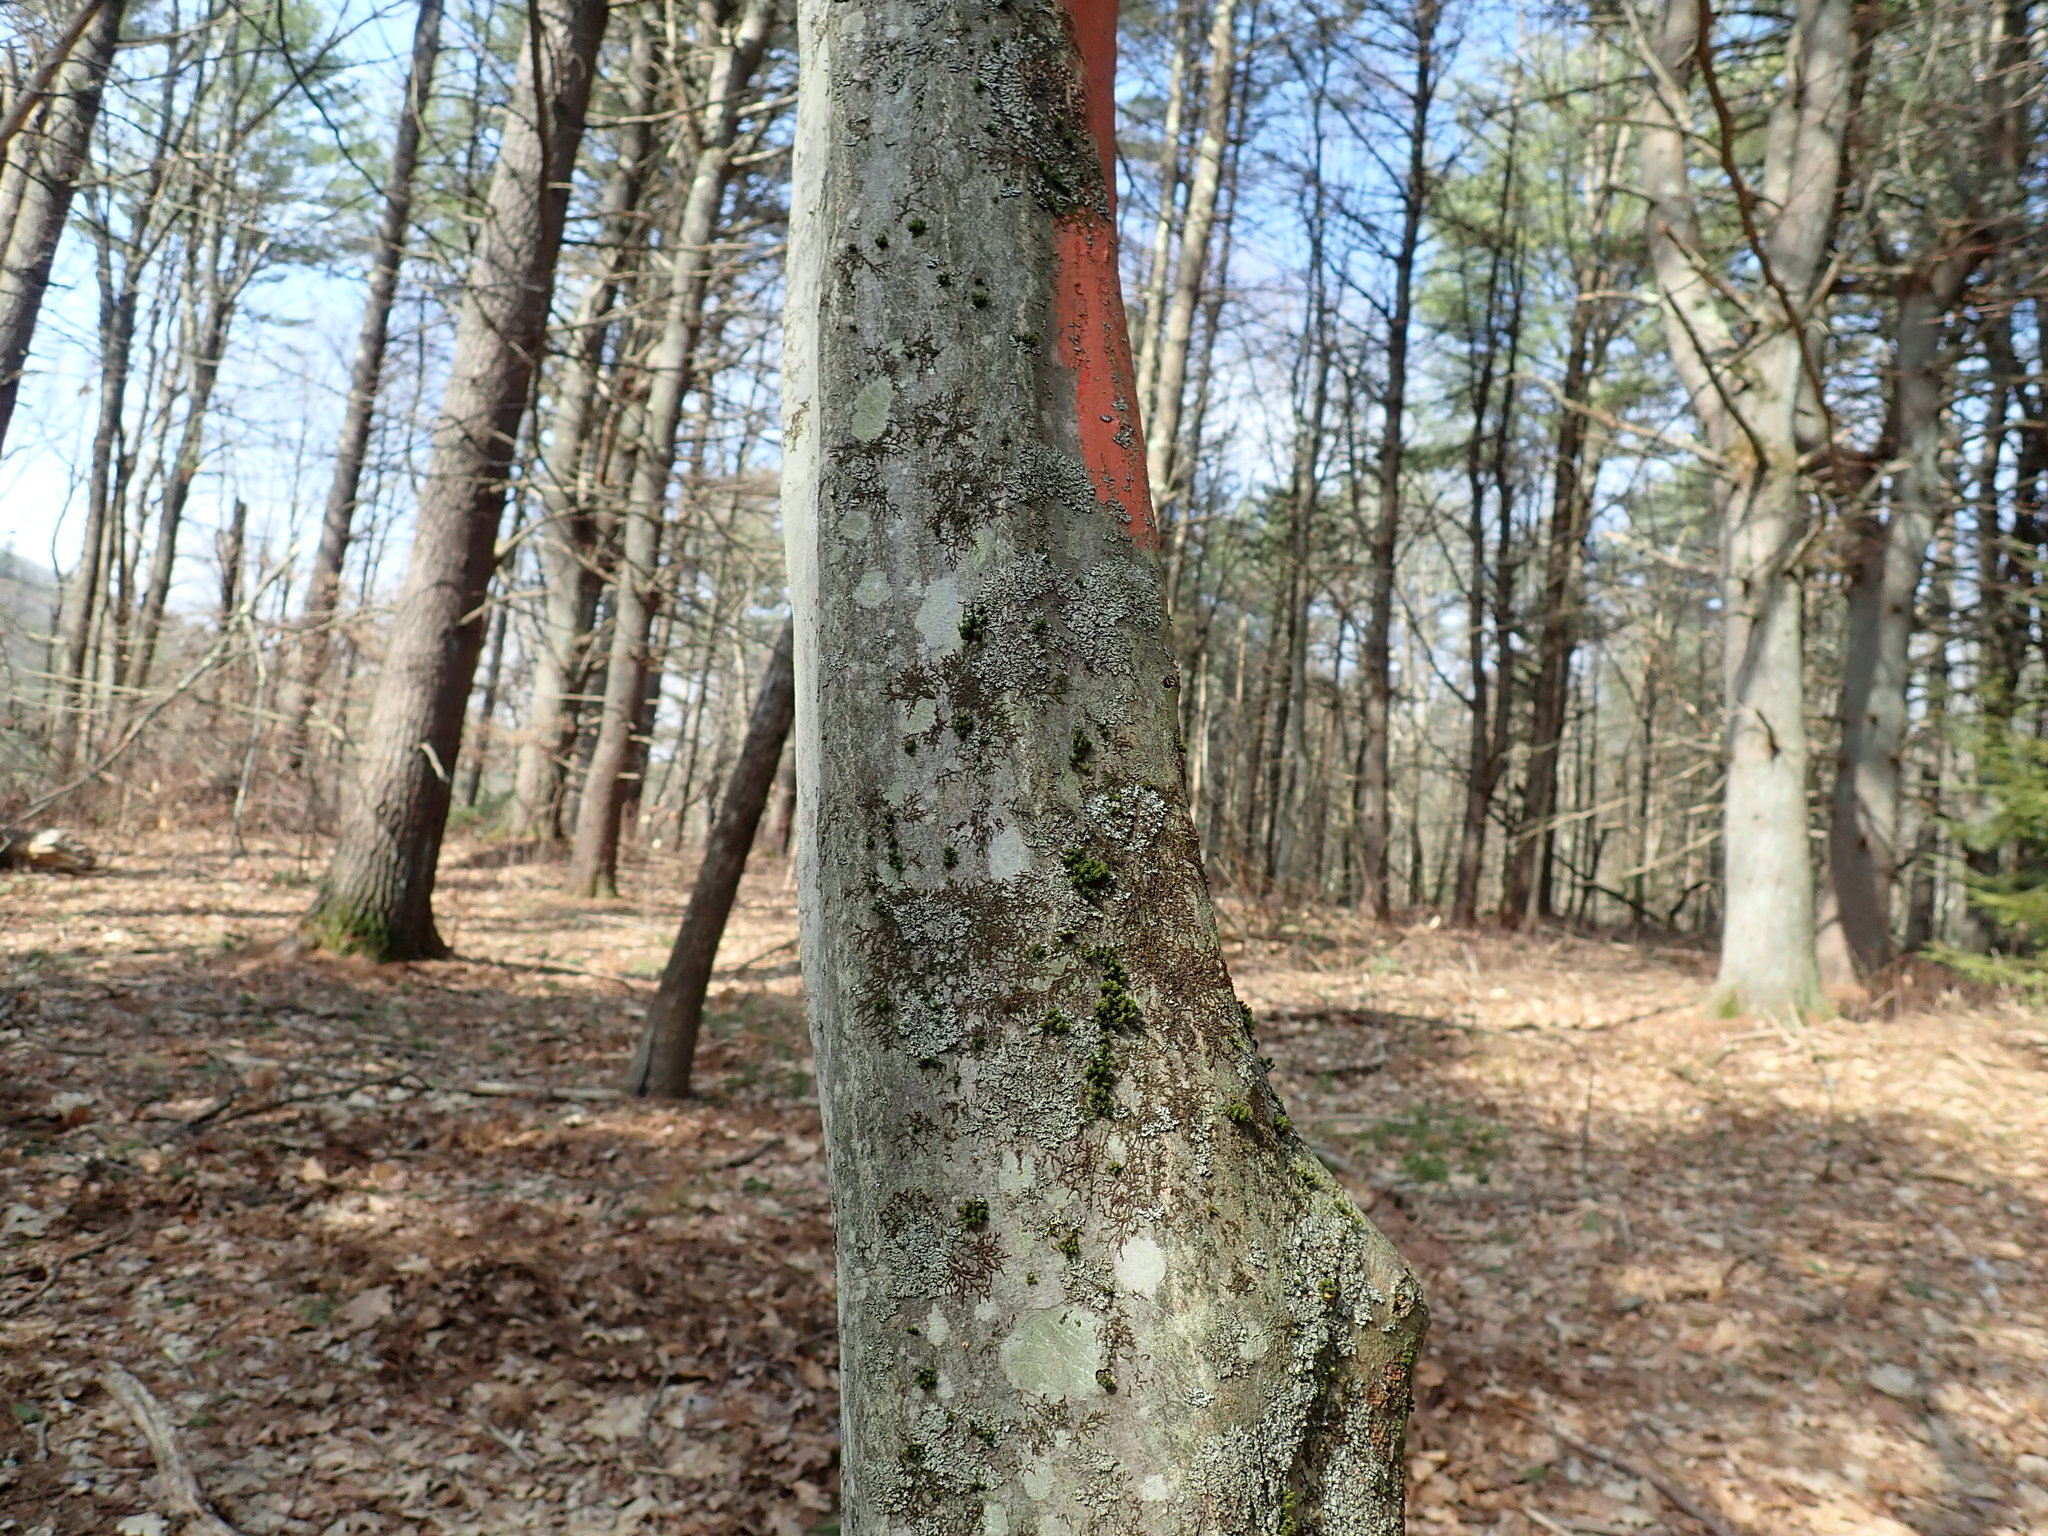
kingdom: Plantae
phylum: Tracheophyta
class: Magnoliopsida
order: Fagales
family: Betulaceae
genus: Carpinus
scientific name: Carpinus caroliniana
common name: American hornbeam
